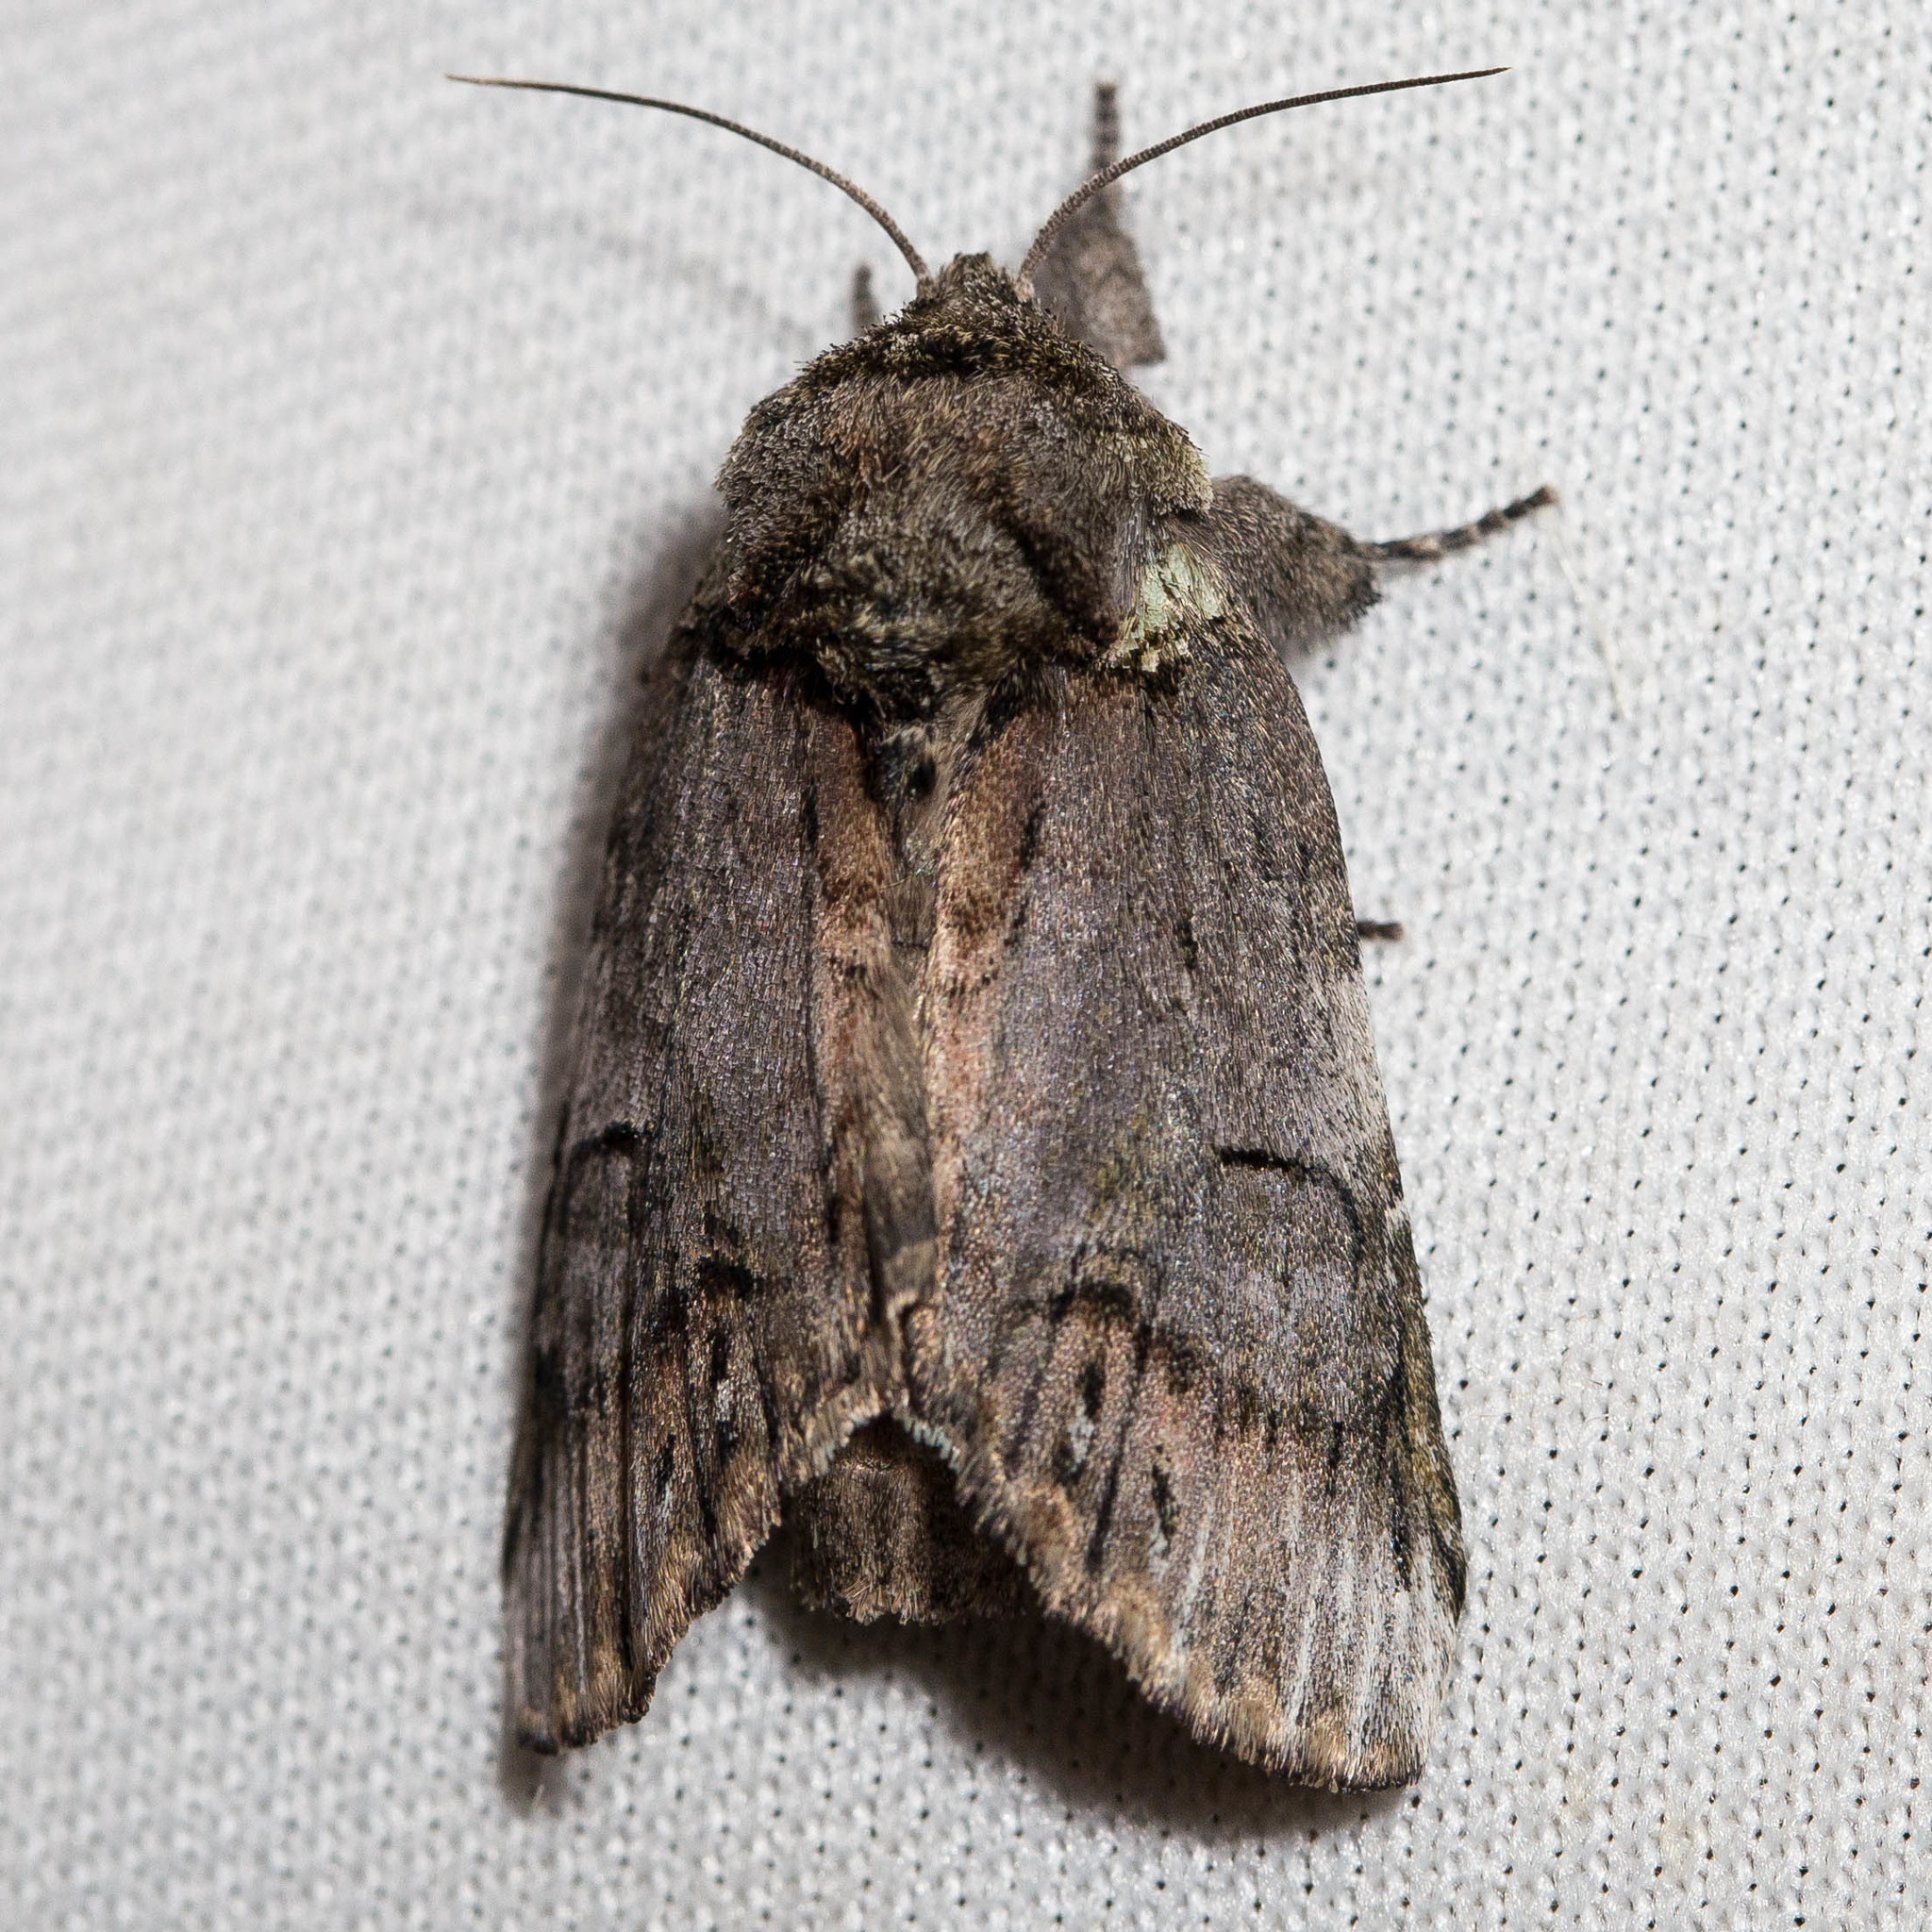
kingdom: Animalia
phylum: Arthropoda
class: Insecta
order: Lepidoptera
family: Notodontidae
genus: Schizura
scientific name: Schizura
